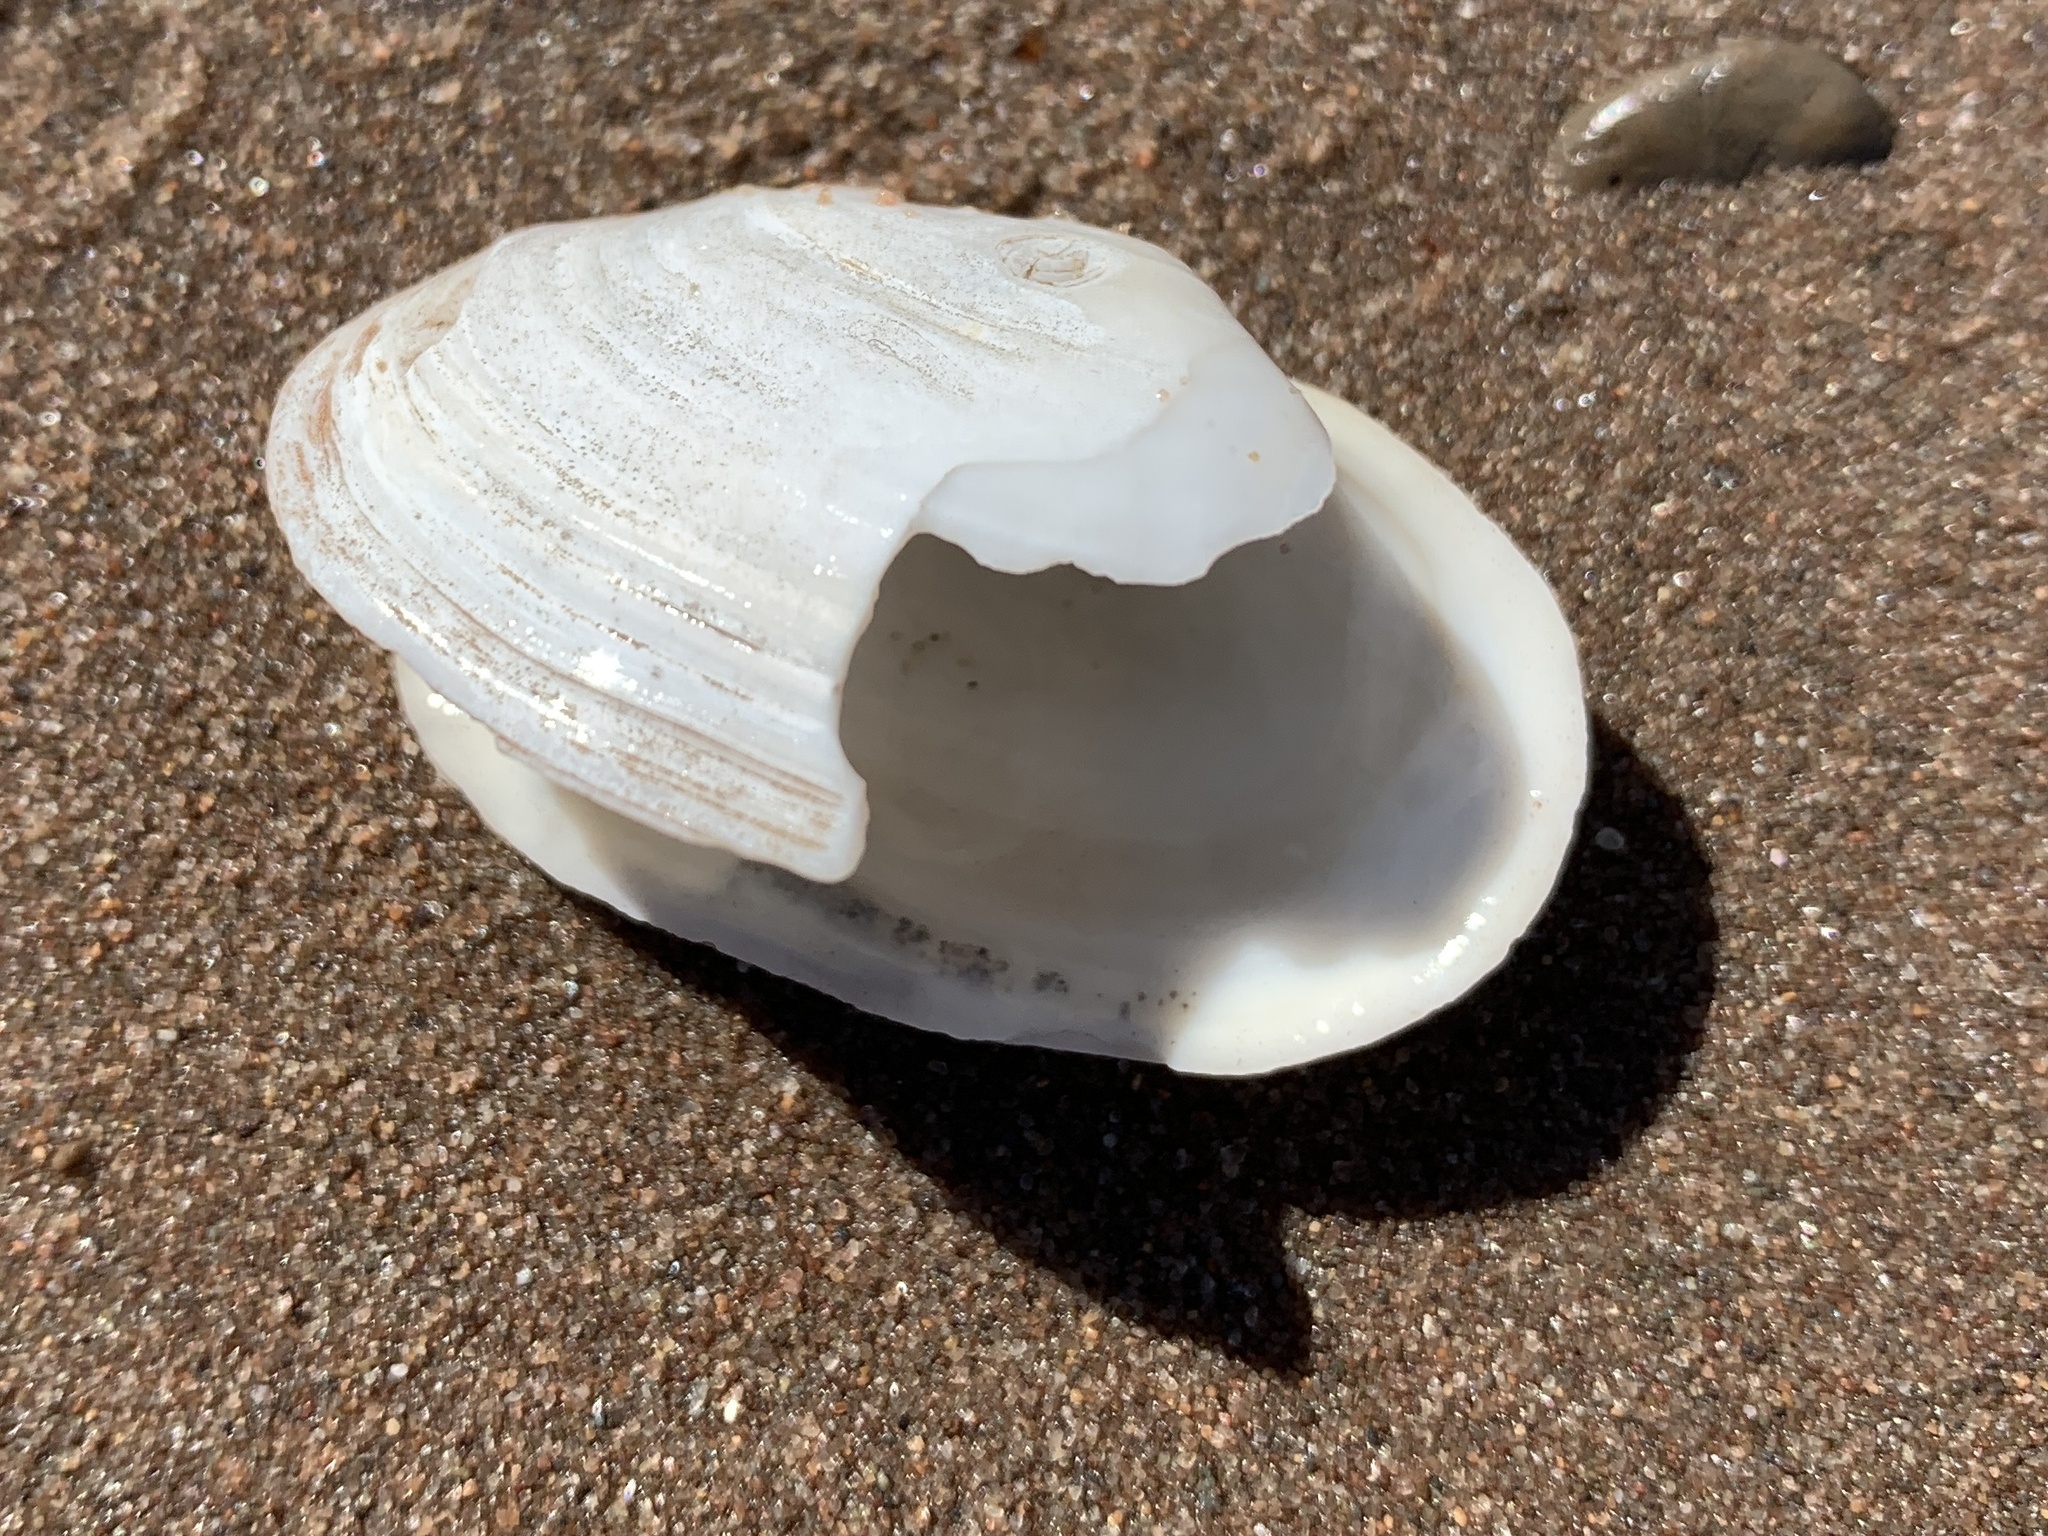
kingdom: Animalia
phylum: Mollusca
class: Bivalvia
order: Myida
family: Myidae
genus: Mya
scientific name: Mya arenaria
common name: Soft-shelled clam
